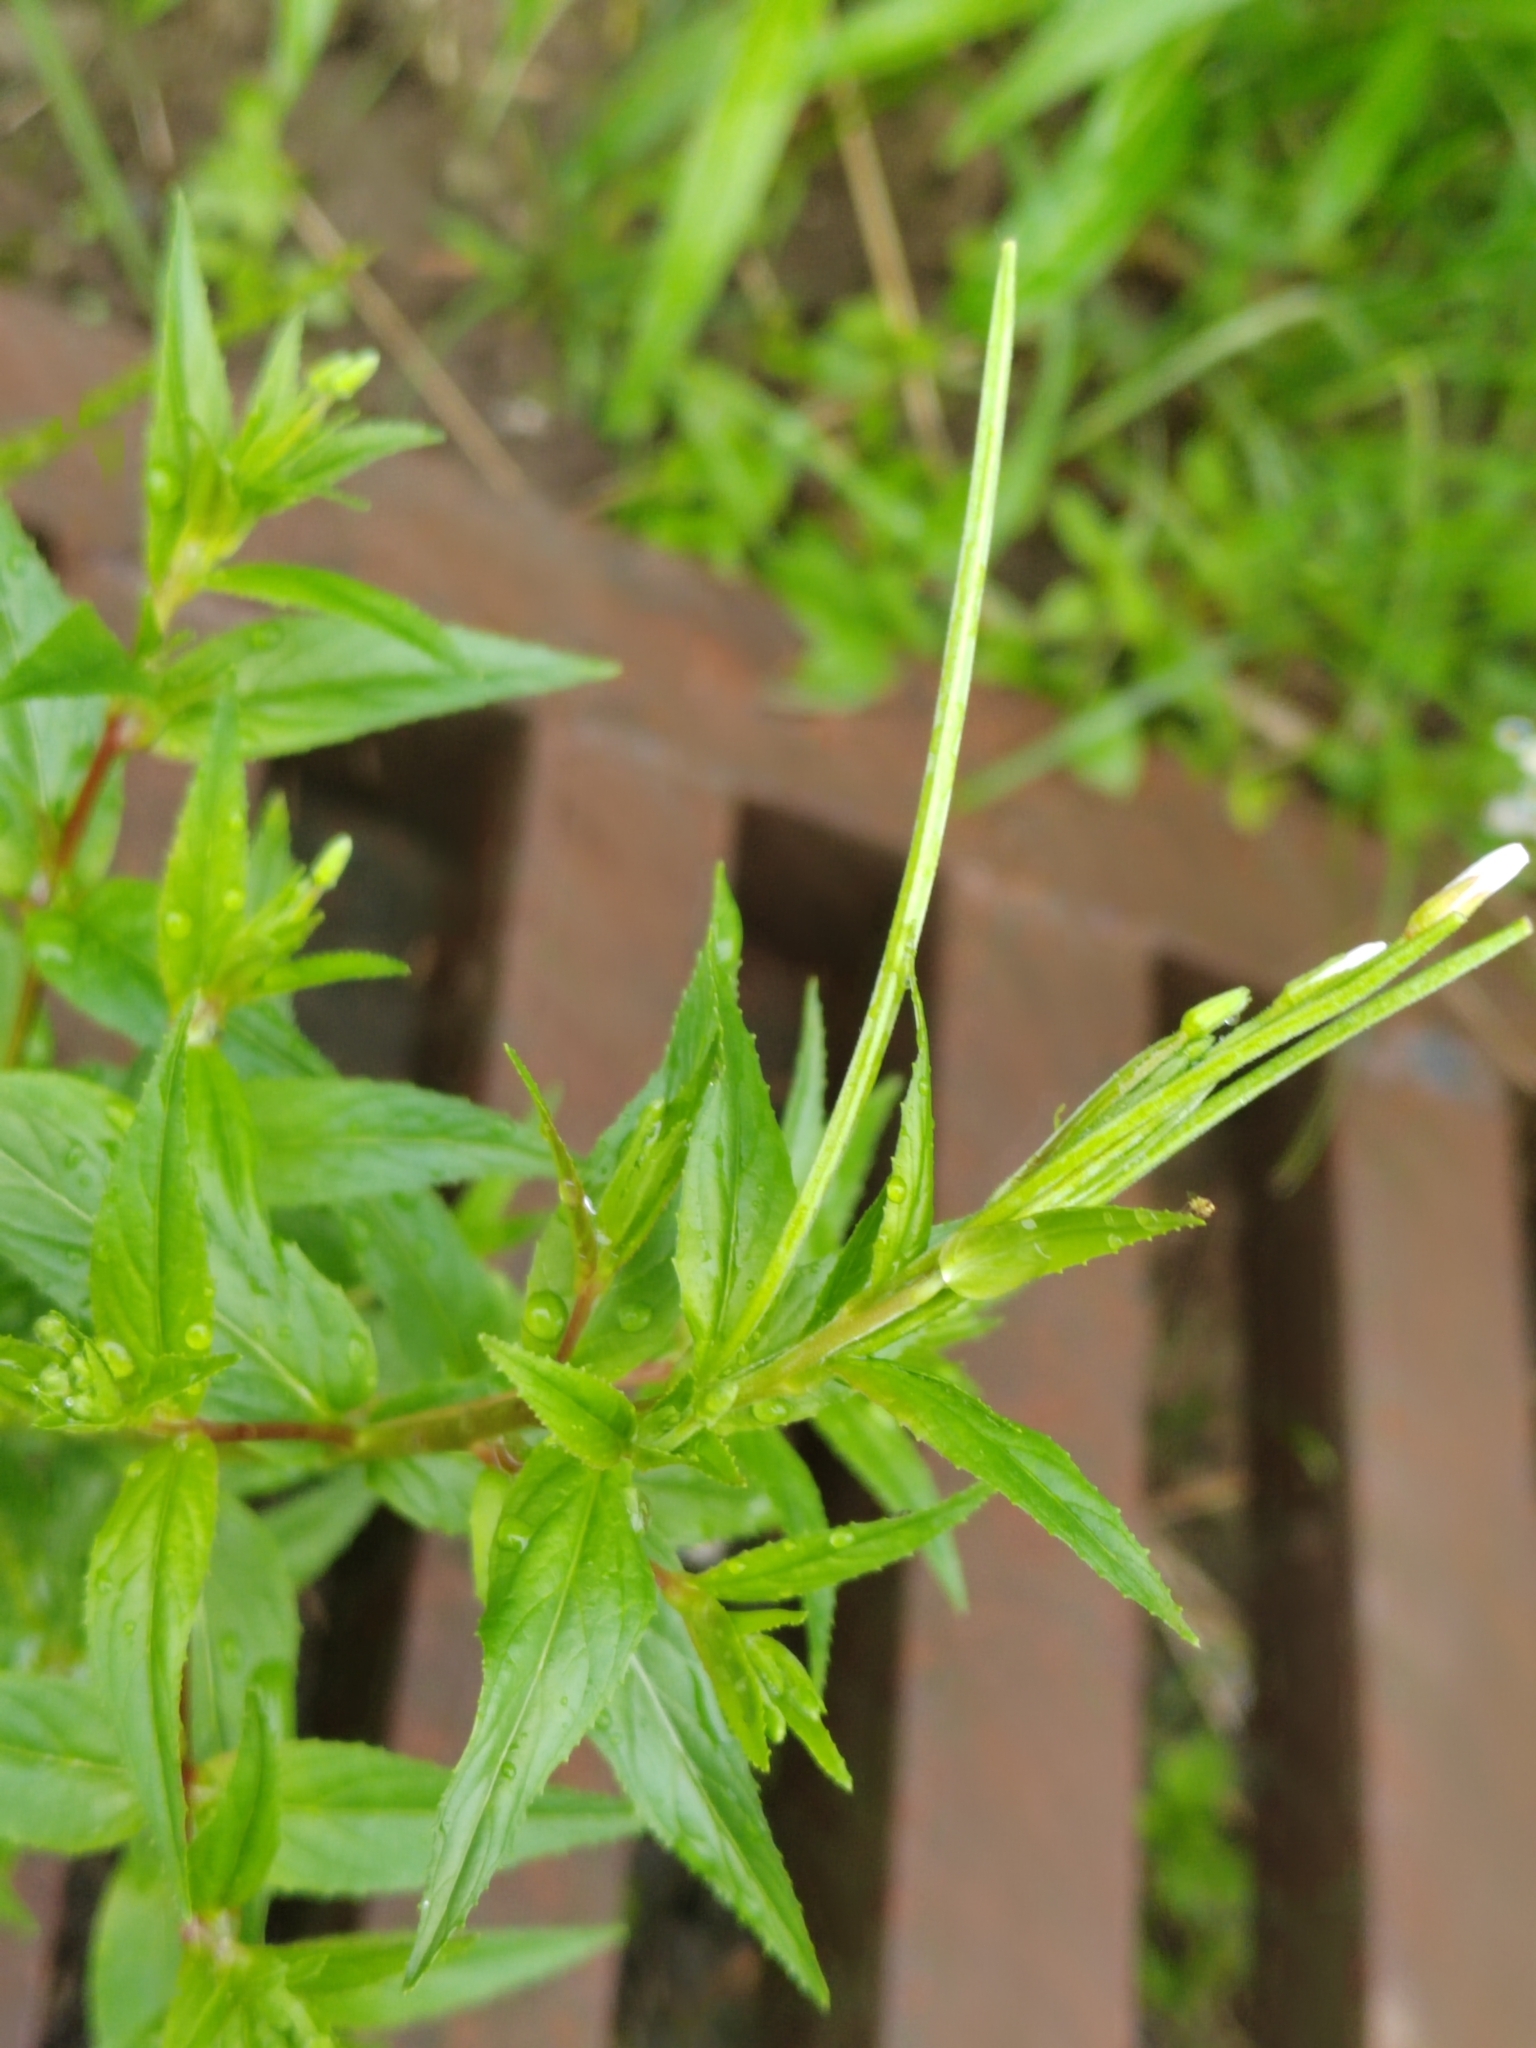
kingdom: Plantae
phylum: Tracheophyta
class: Magnoliopsida
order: Myrtales
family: Onagraceae
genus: Epilobium
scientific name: Epilobium pseudorubescens
